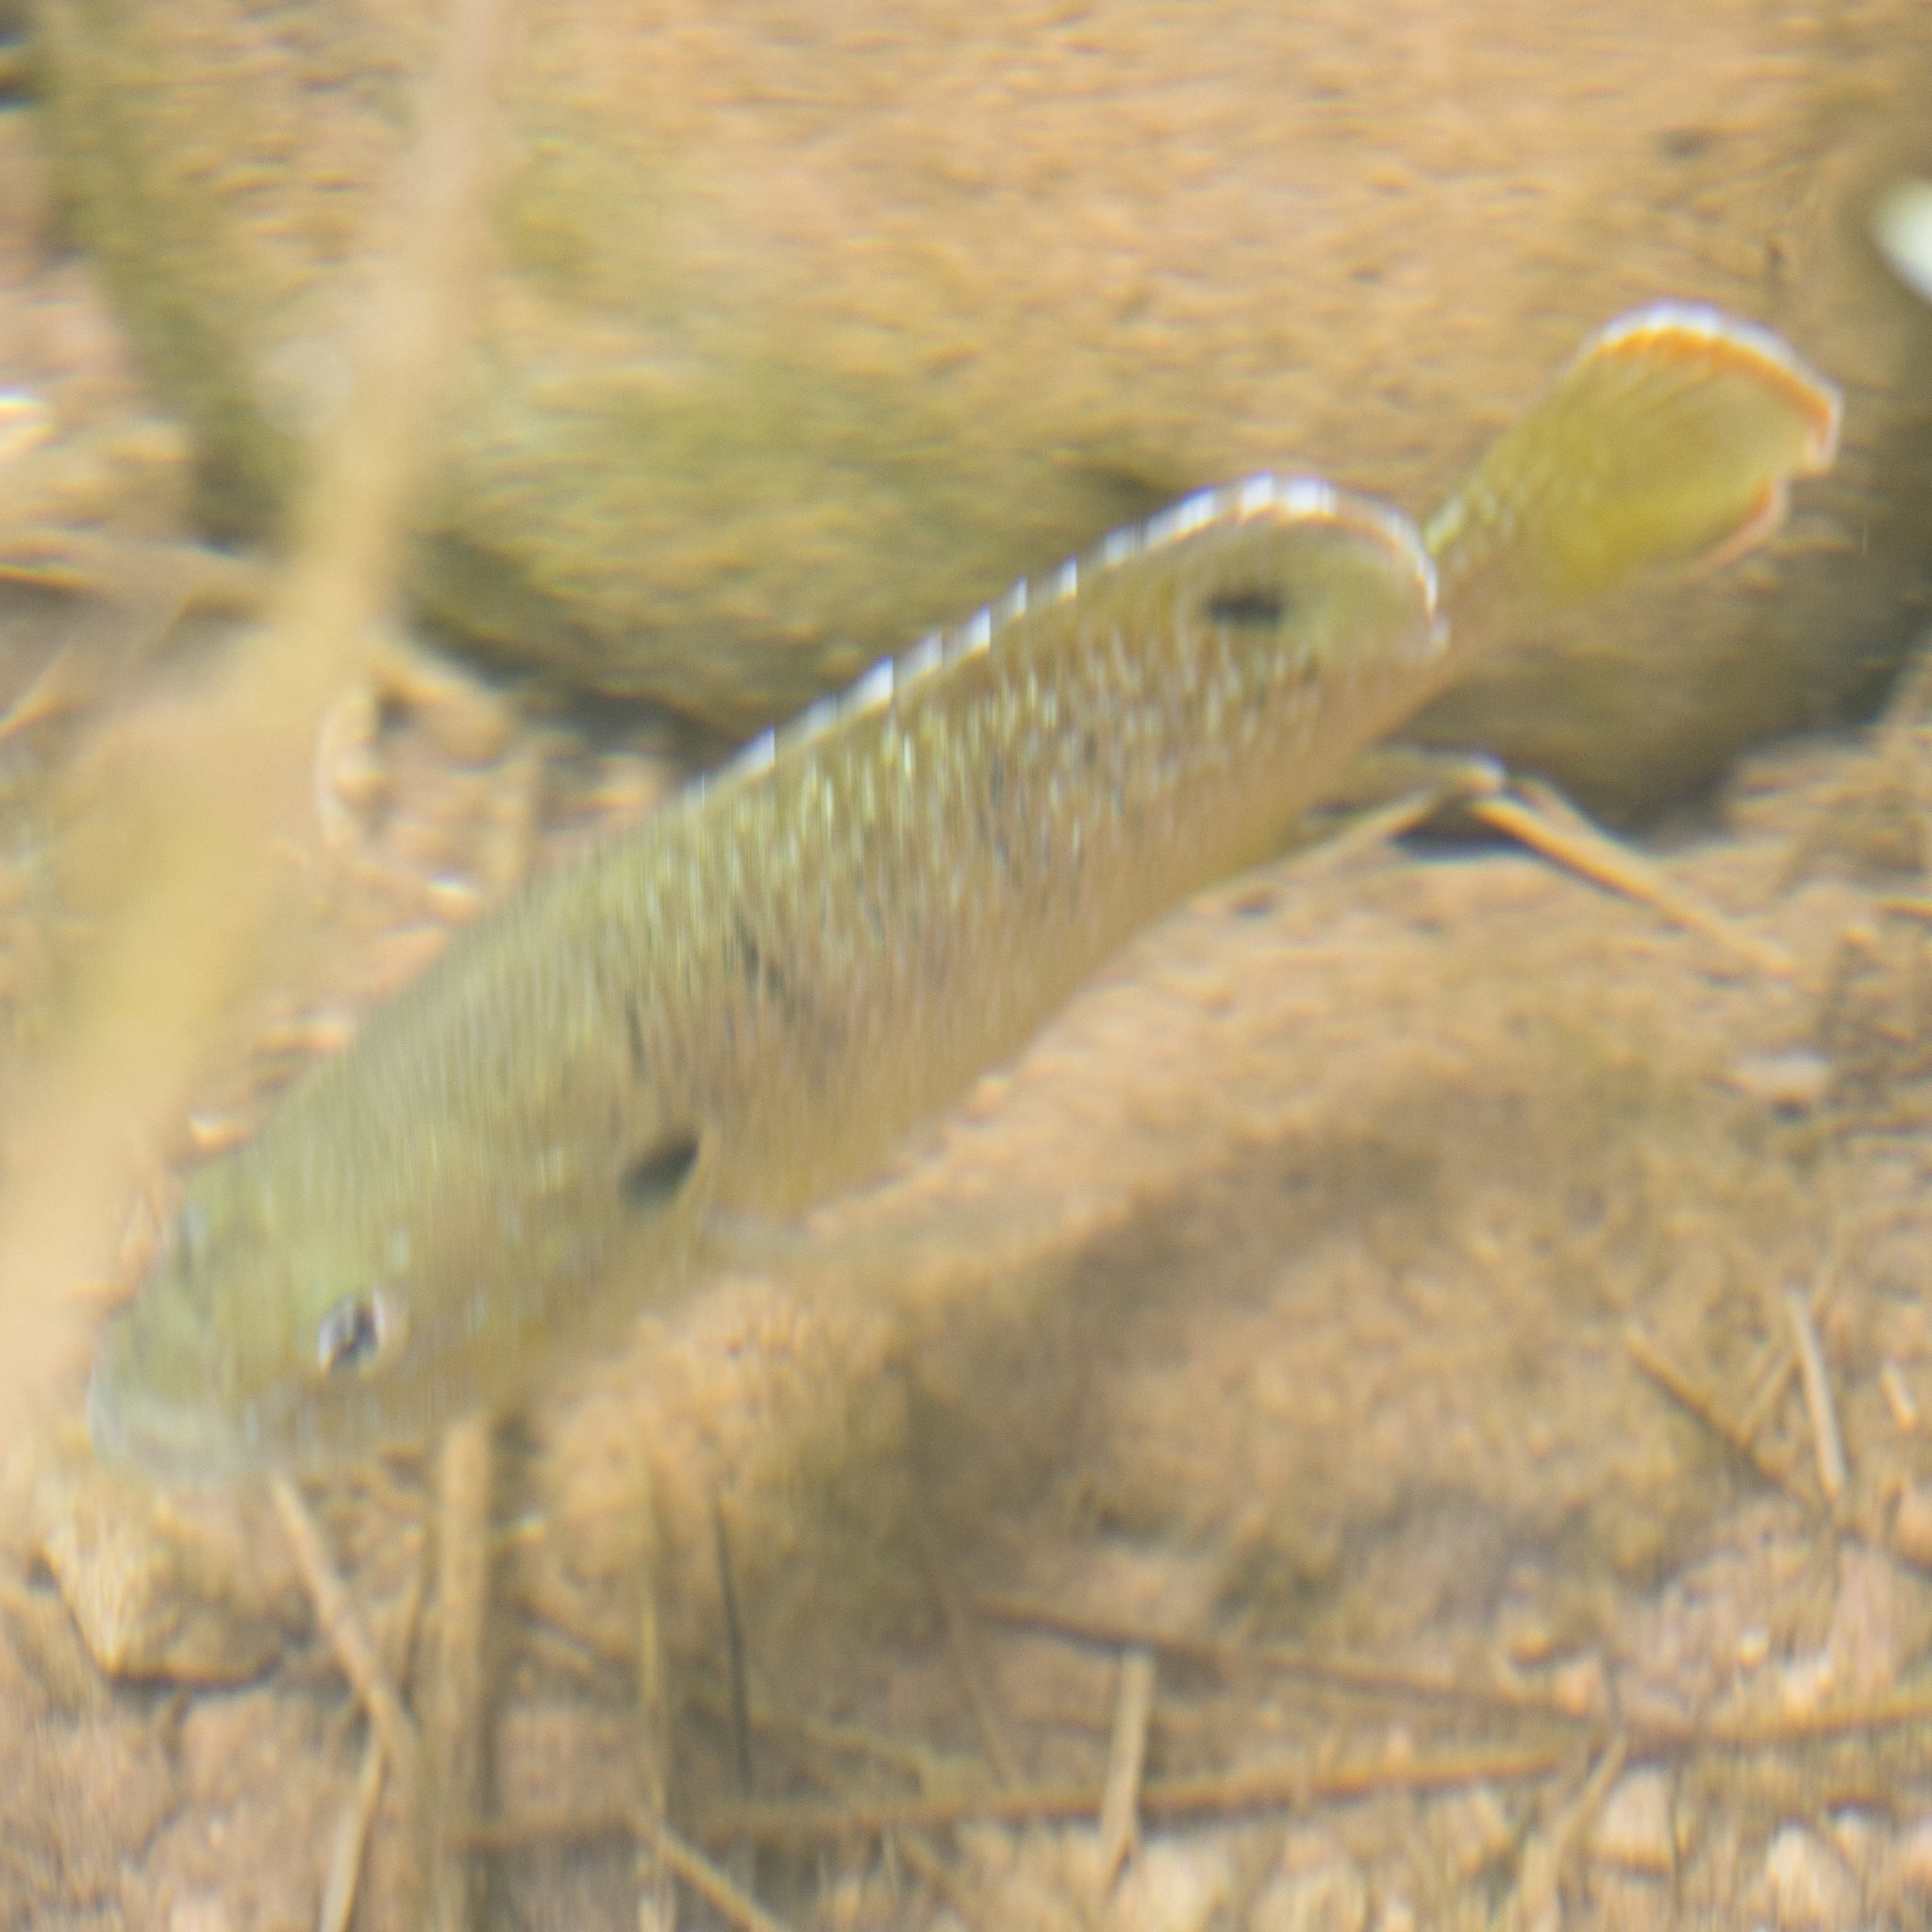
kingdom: Animalia
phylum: Chordata
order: Perciformes
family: Centrarchidae
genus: Lepomis
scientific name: Lepomis cyanellus
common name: Green sunfish
